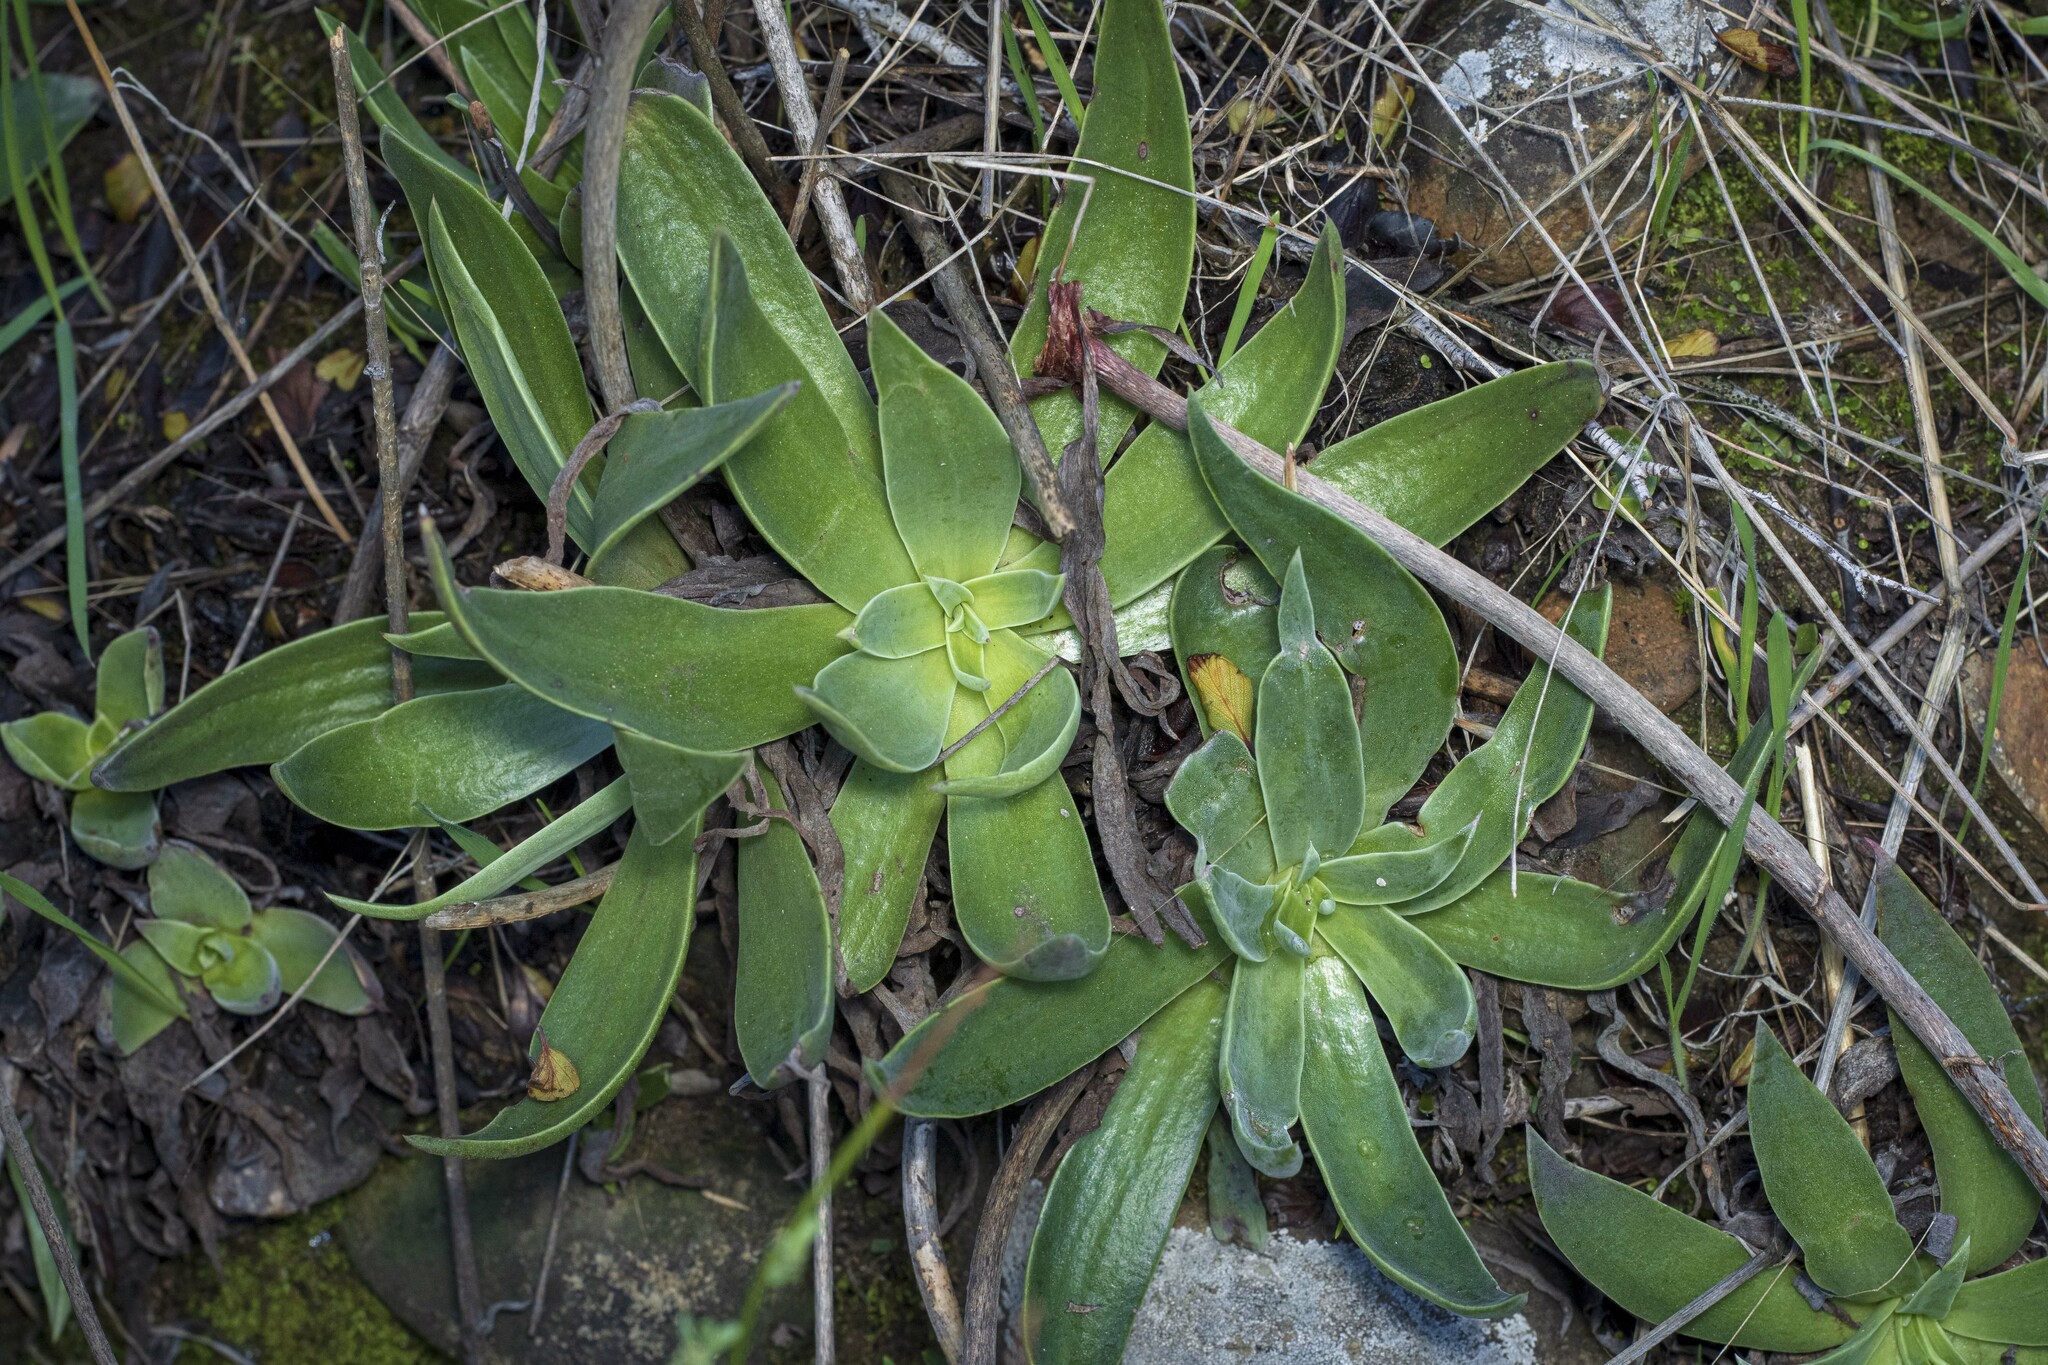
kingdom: Plantae
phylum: Tracheophyta
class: Magnoliopsida
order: Saxifragales
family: Crassulaceae
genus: Dudleya
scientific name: Dudleya lanceolata
